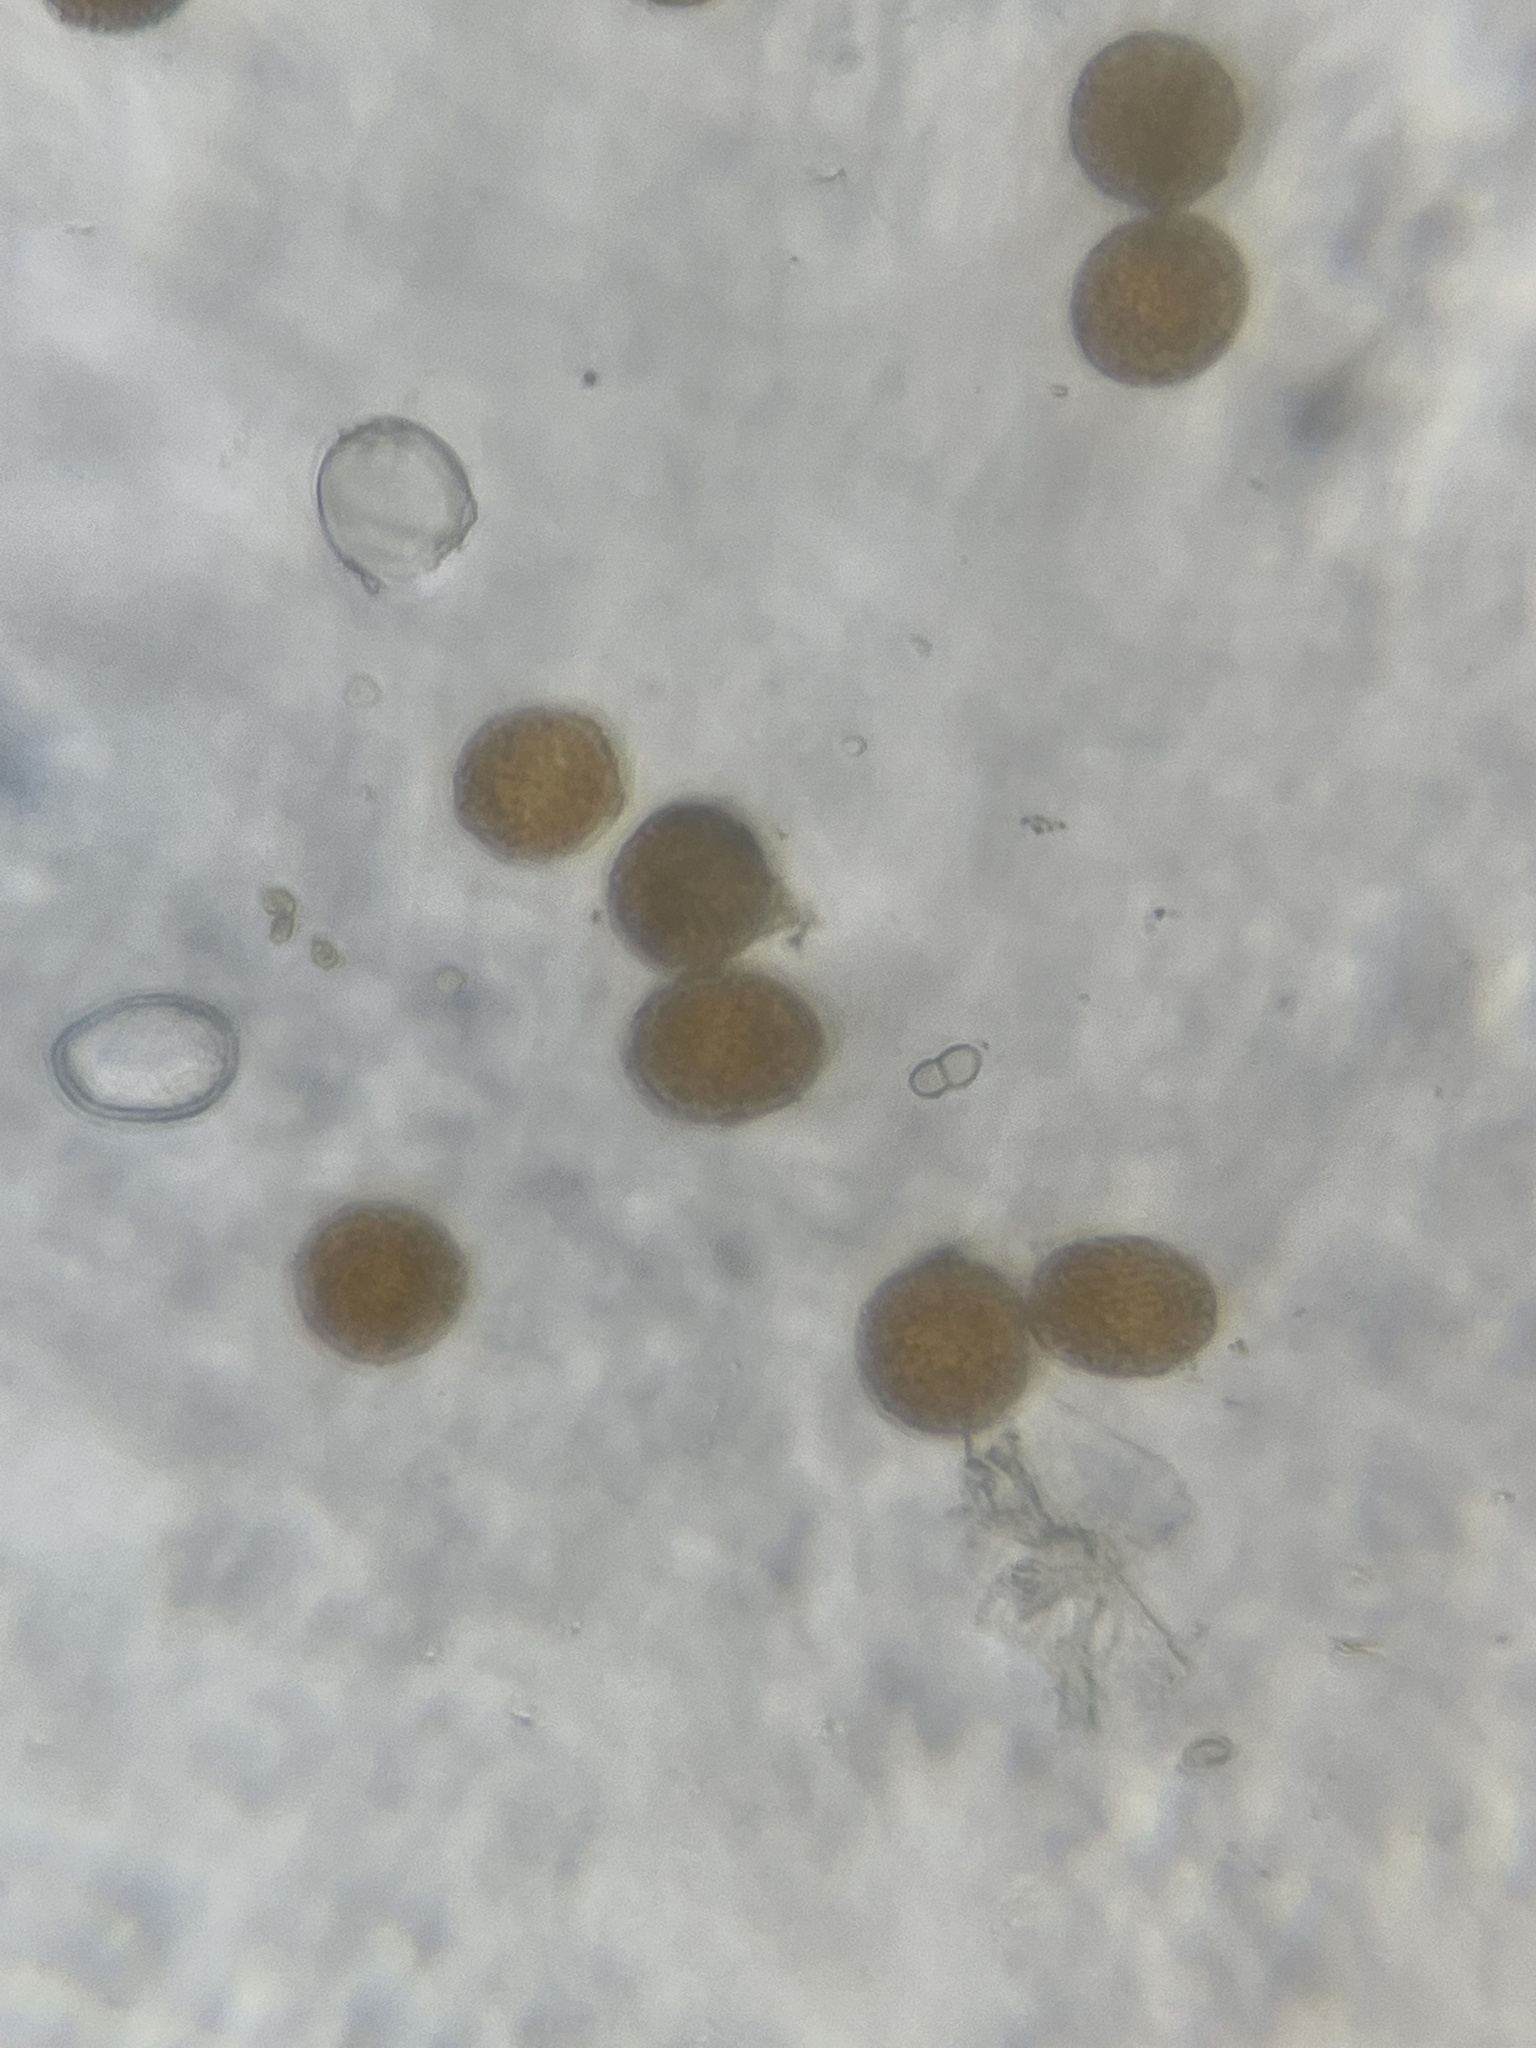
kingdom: Fungi
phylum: Basidiomycota
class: Pucciniomycetes
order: Pucciniales
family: Coleosporiaceae
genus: Coleosporium
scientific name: Coleosporium tussilaginis
